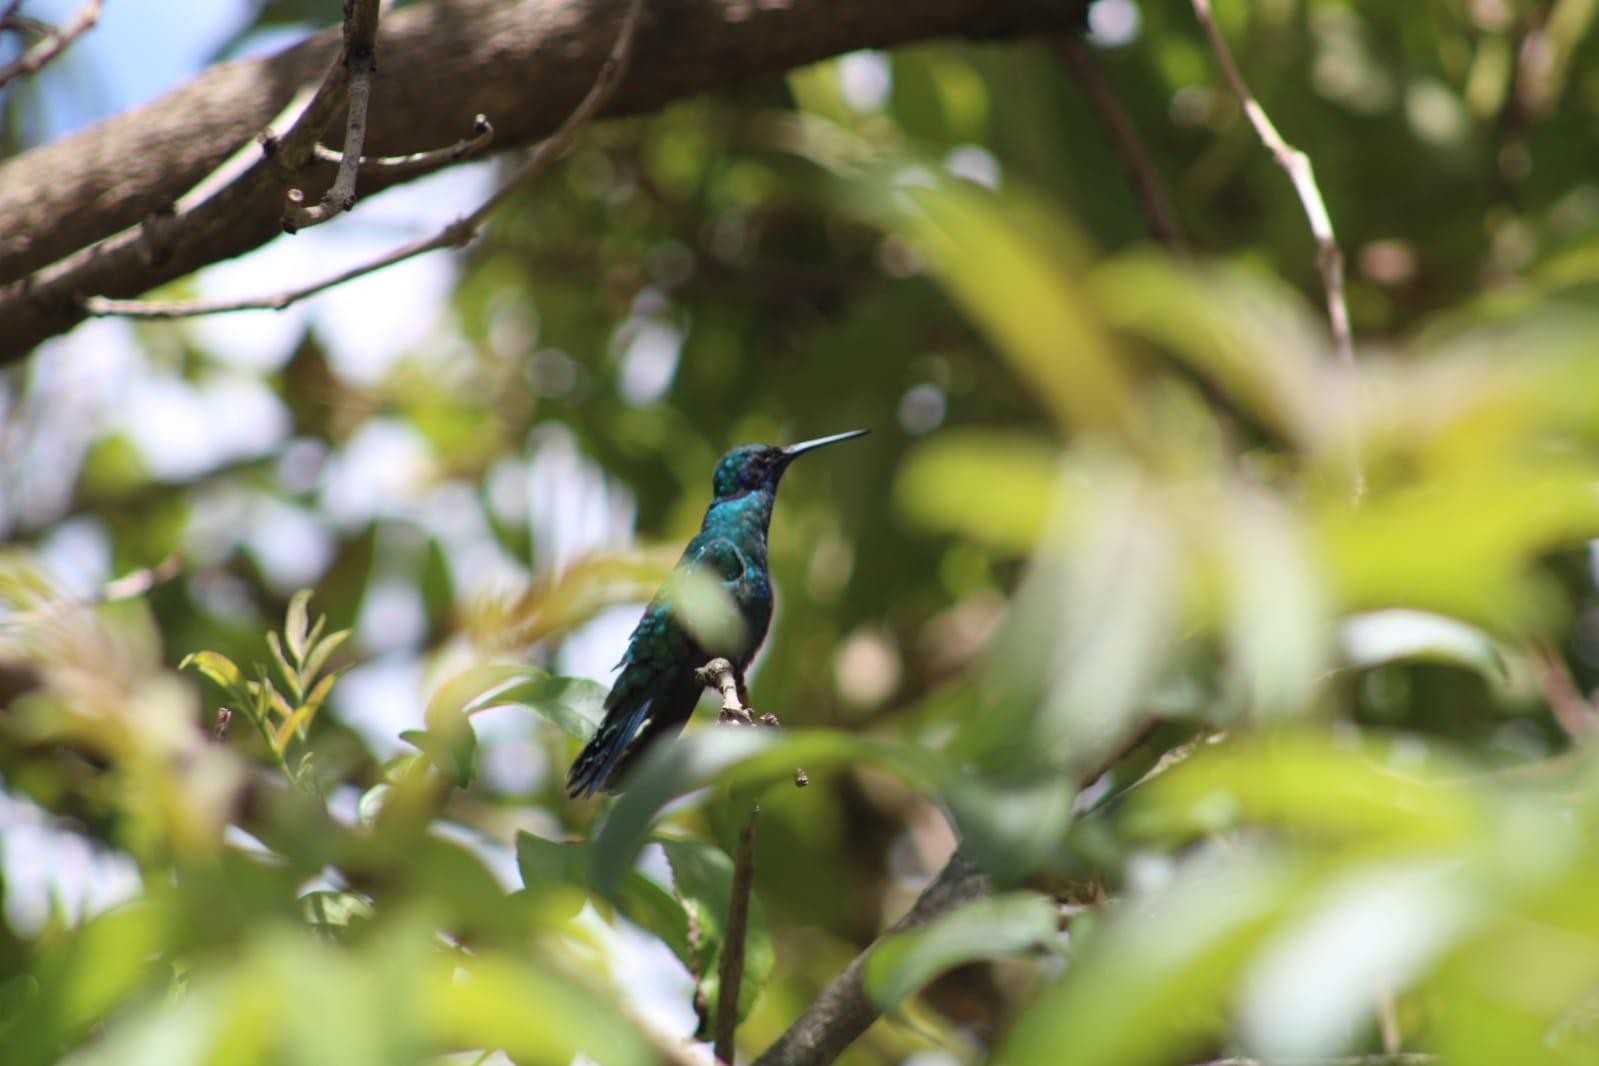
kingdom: Animalia
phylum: Chordata
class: Aves
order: Apodiformes
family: Trochilidae
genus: Colibri
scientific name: Colibri coruscans
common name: Sparkling violetear
